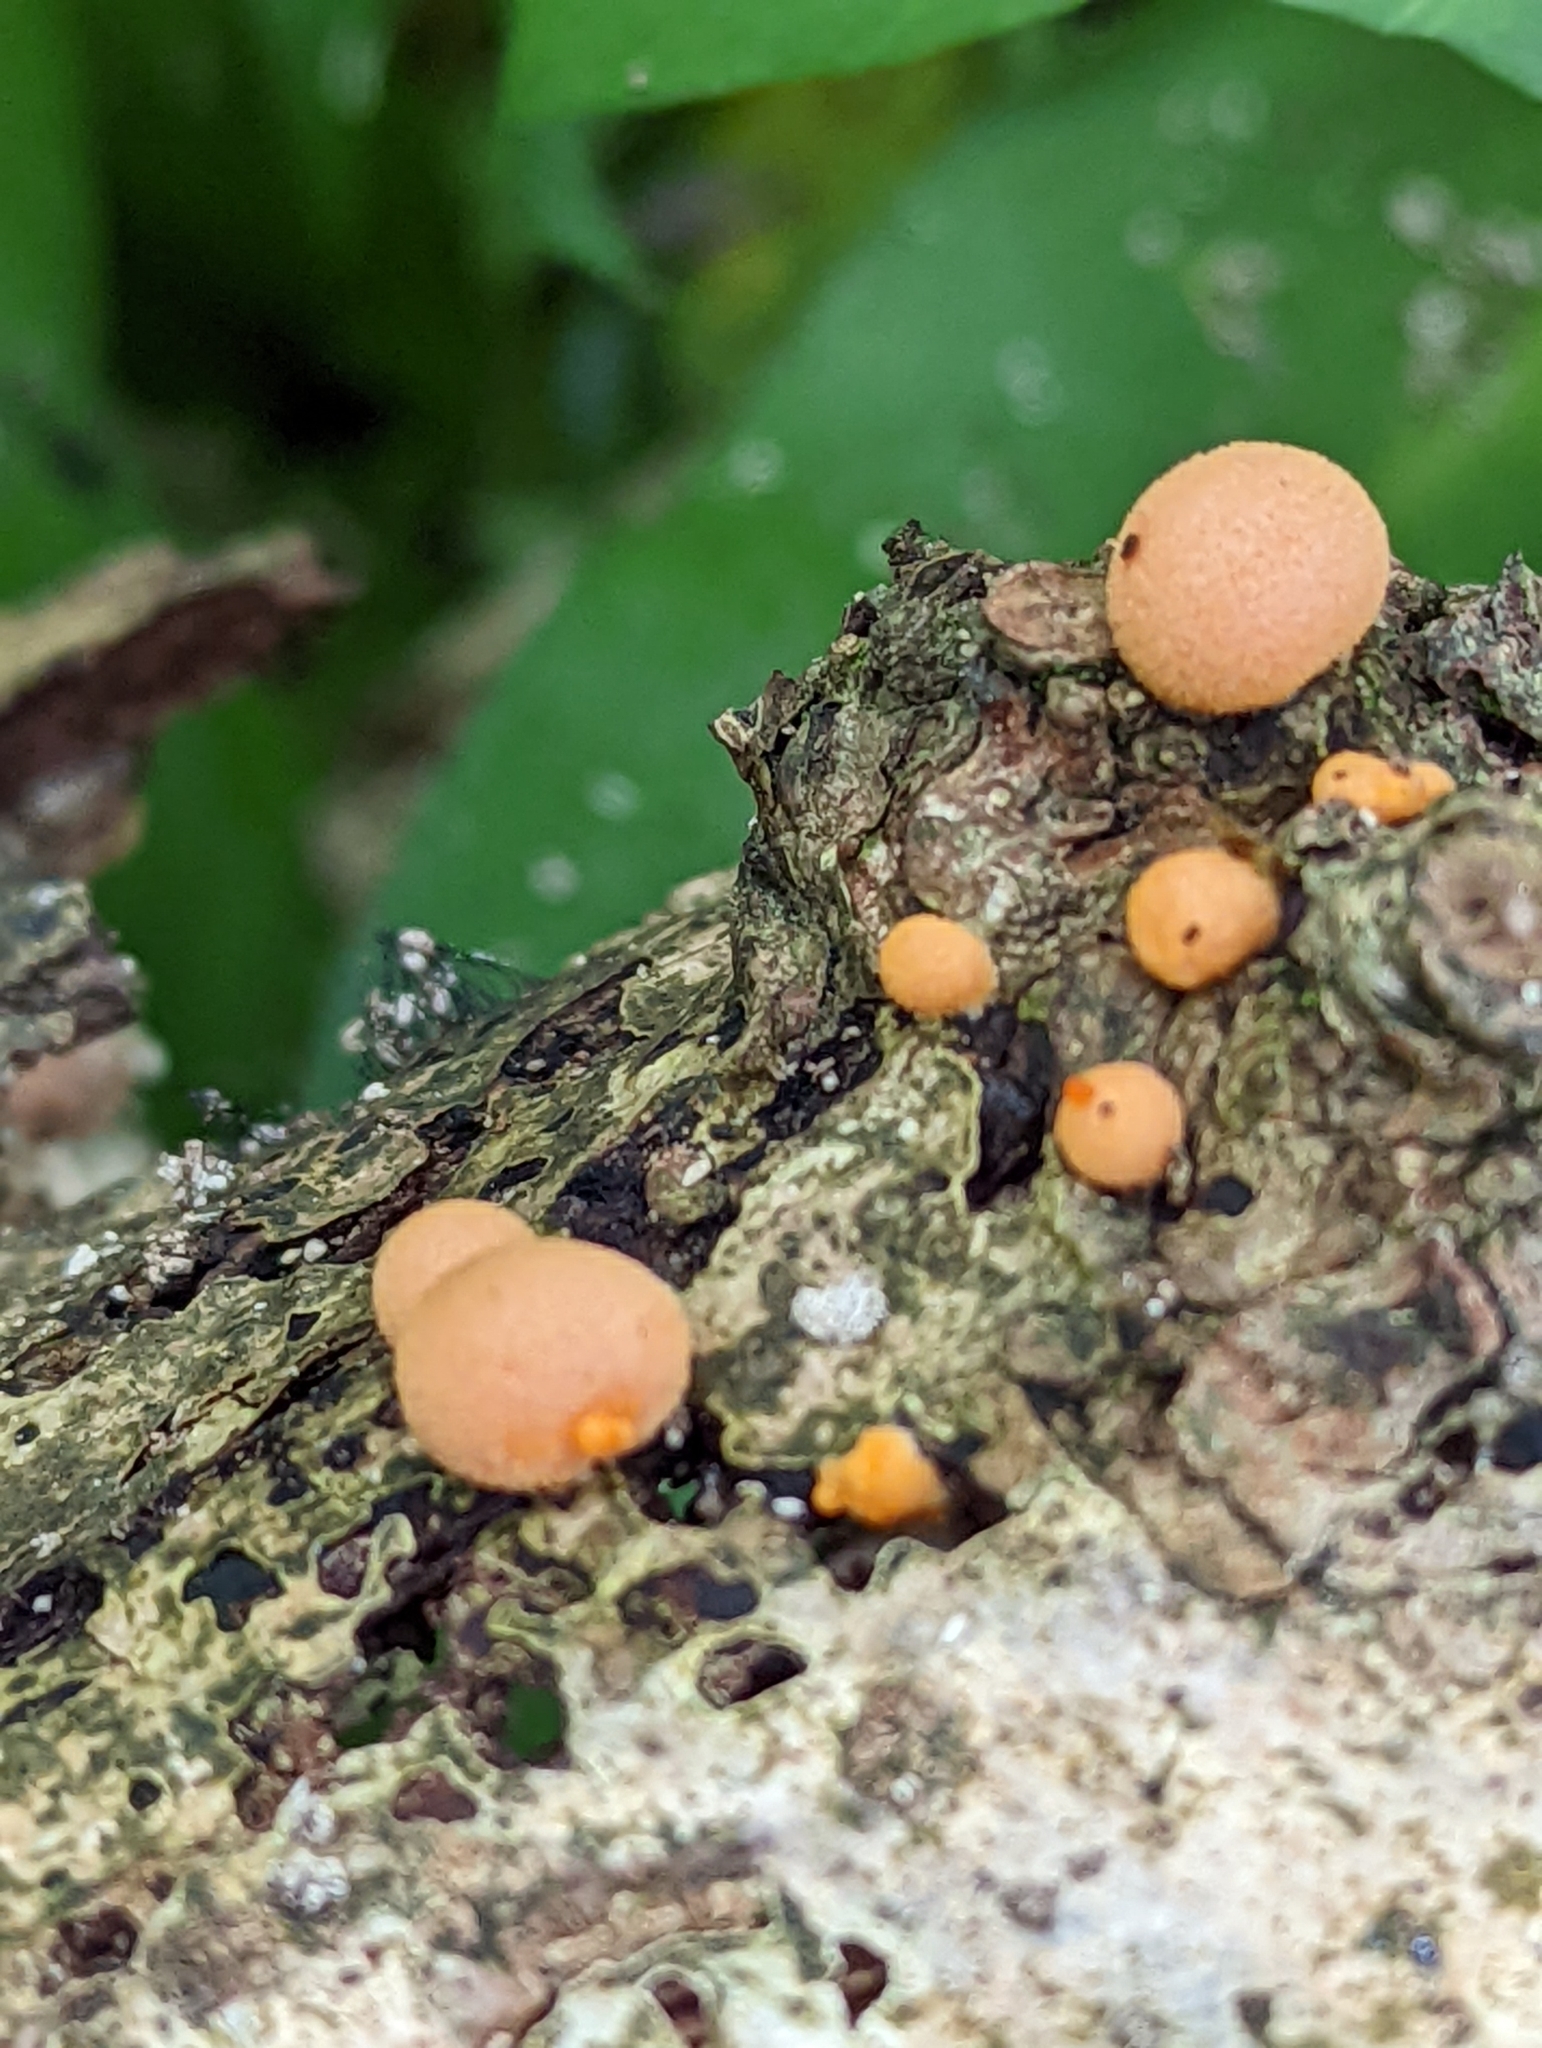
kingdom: Protozoa
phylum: Mycetozoa
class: Myxomycetes
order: Cribrariales
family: Tubiferaceae
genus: Lycogala
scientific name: Lycogala epidendrum
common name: Wolf's milk
